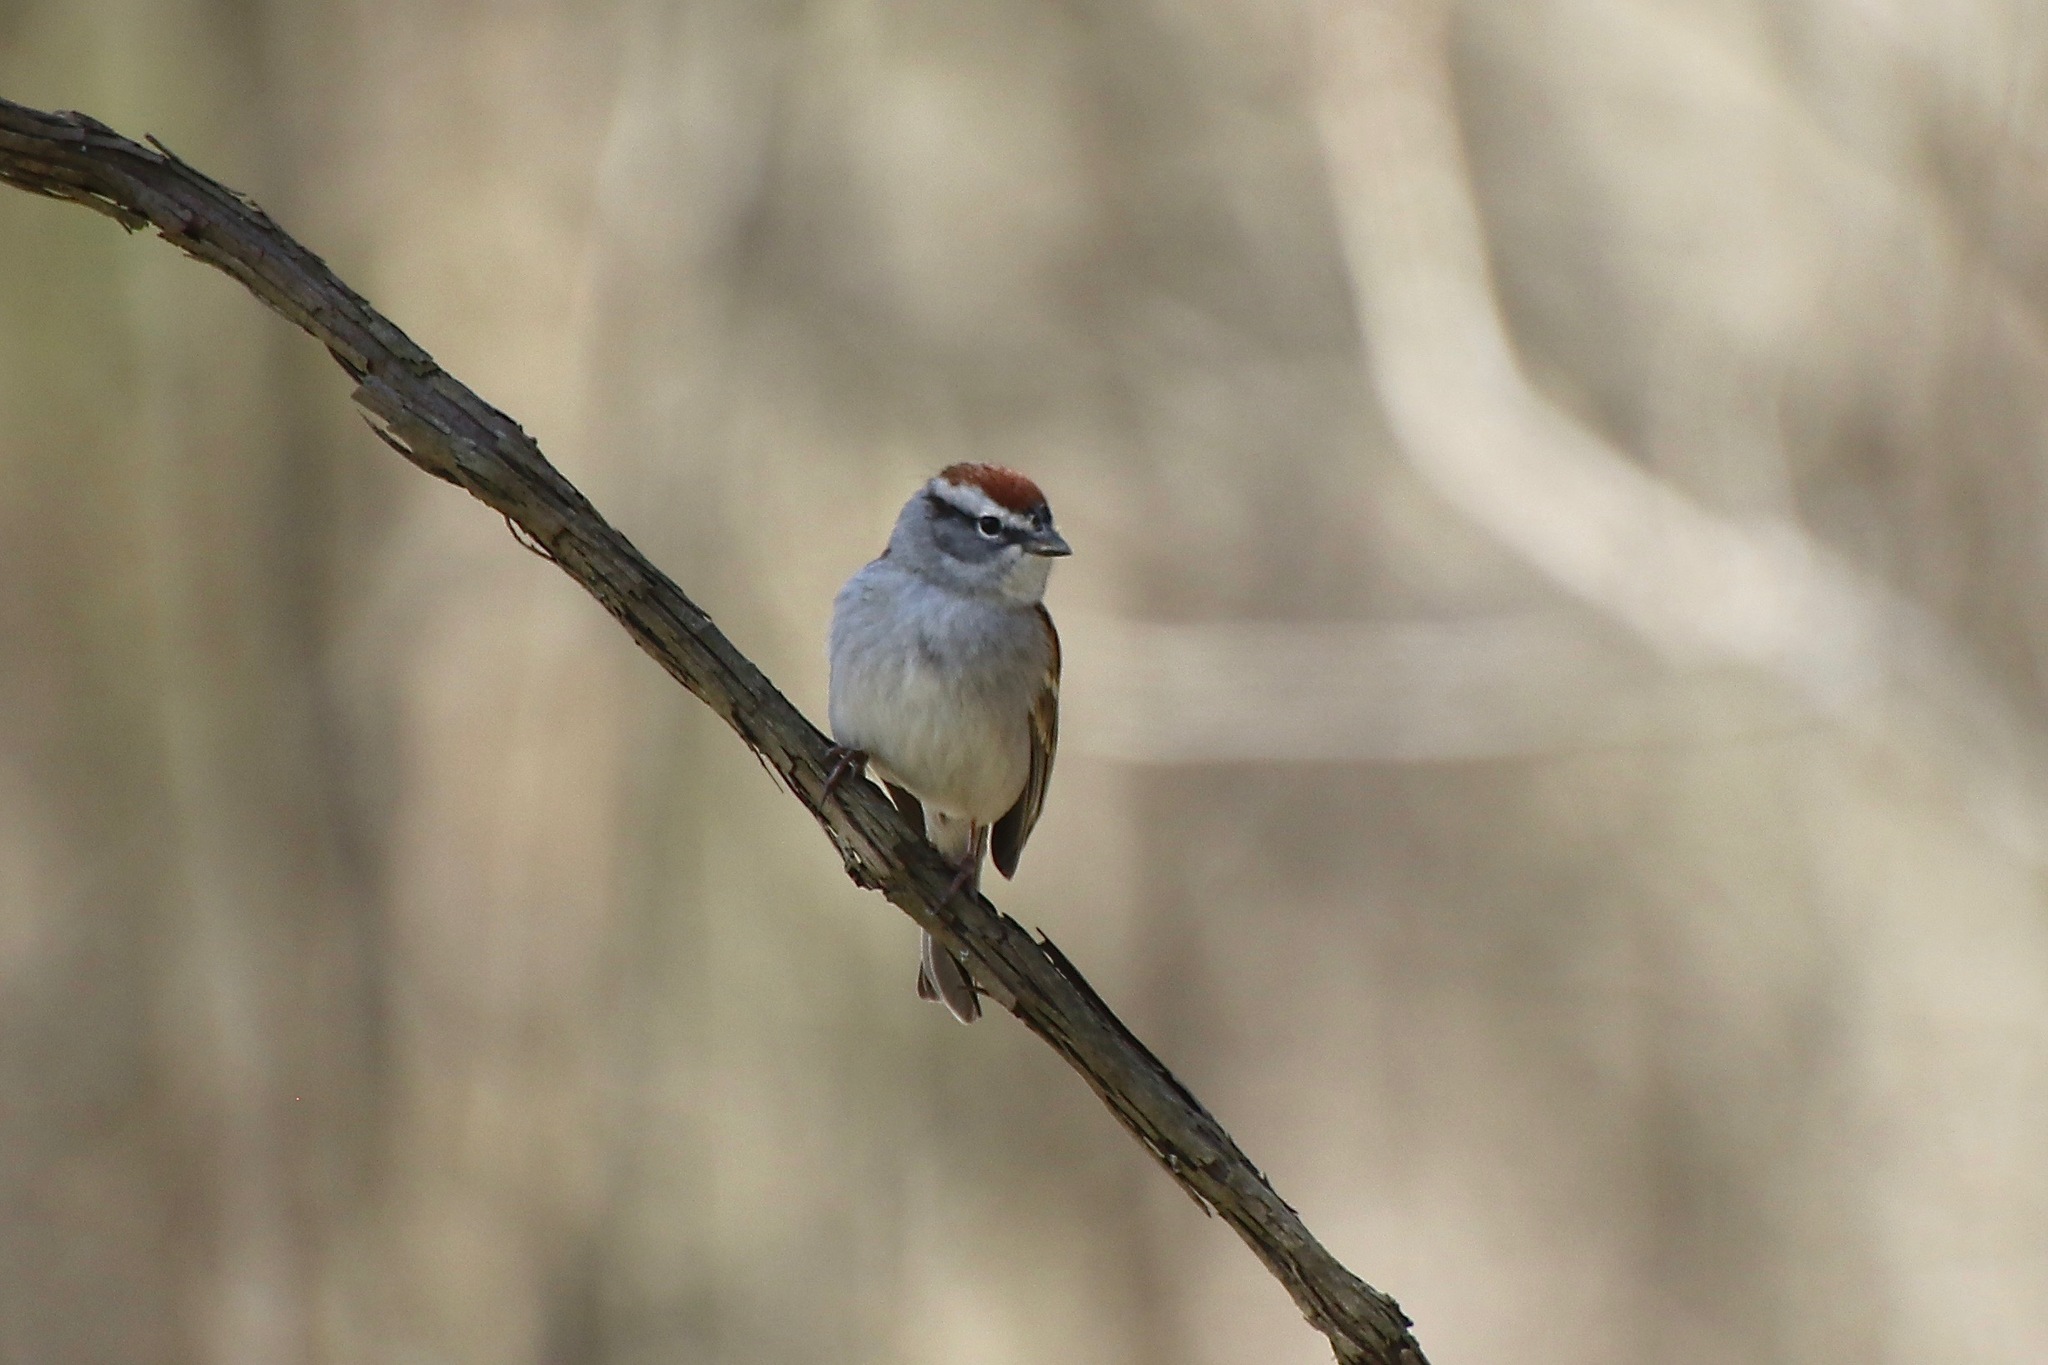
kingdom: Animalia
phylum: Chordata
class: Aves
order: Passeriformes
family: Passerellidae
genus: Spizella
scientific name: Spizella passerina
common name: Chipping sparrow
